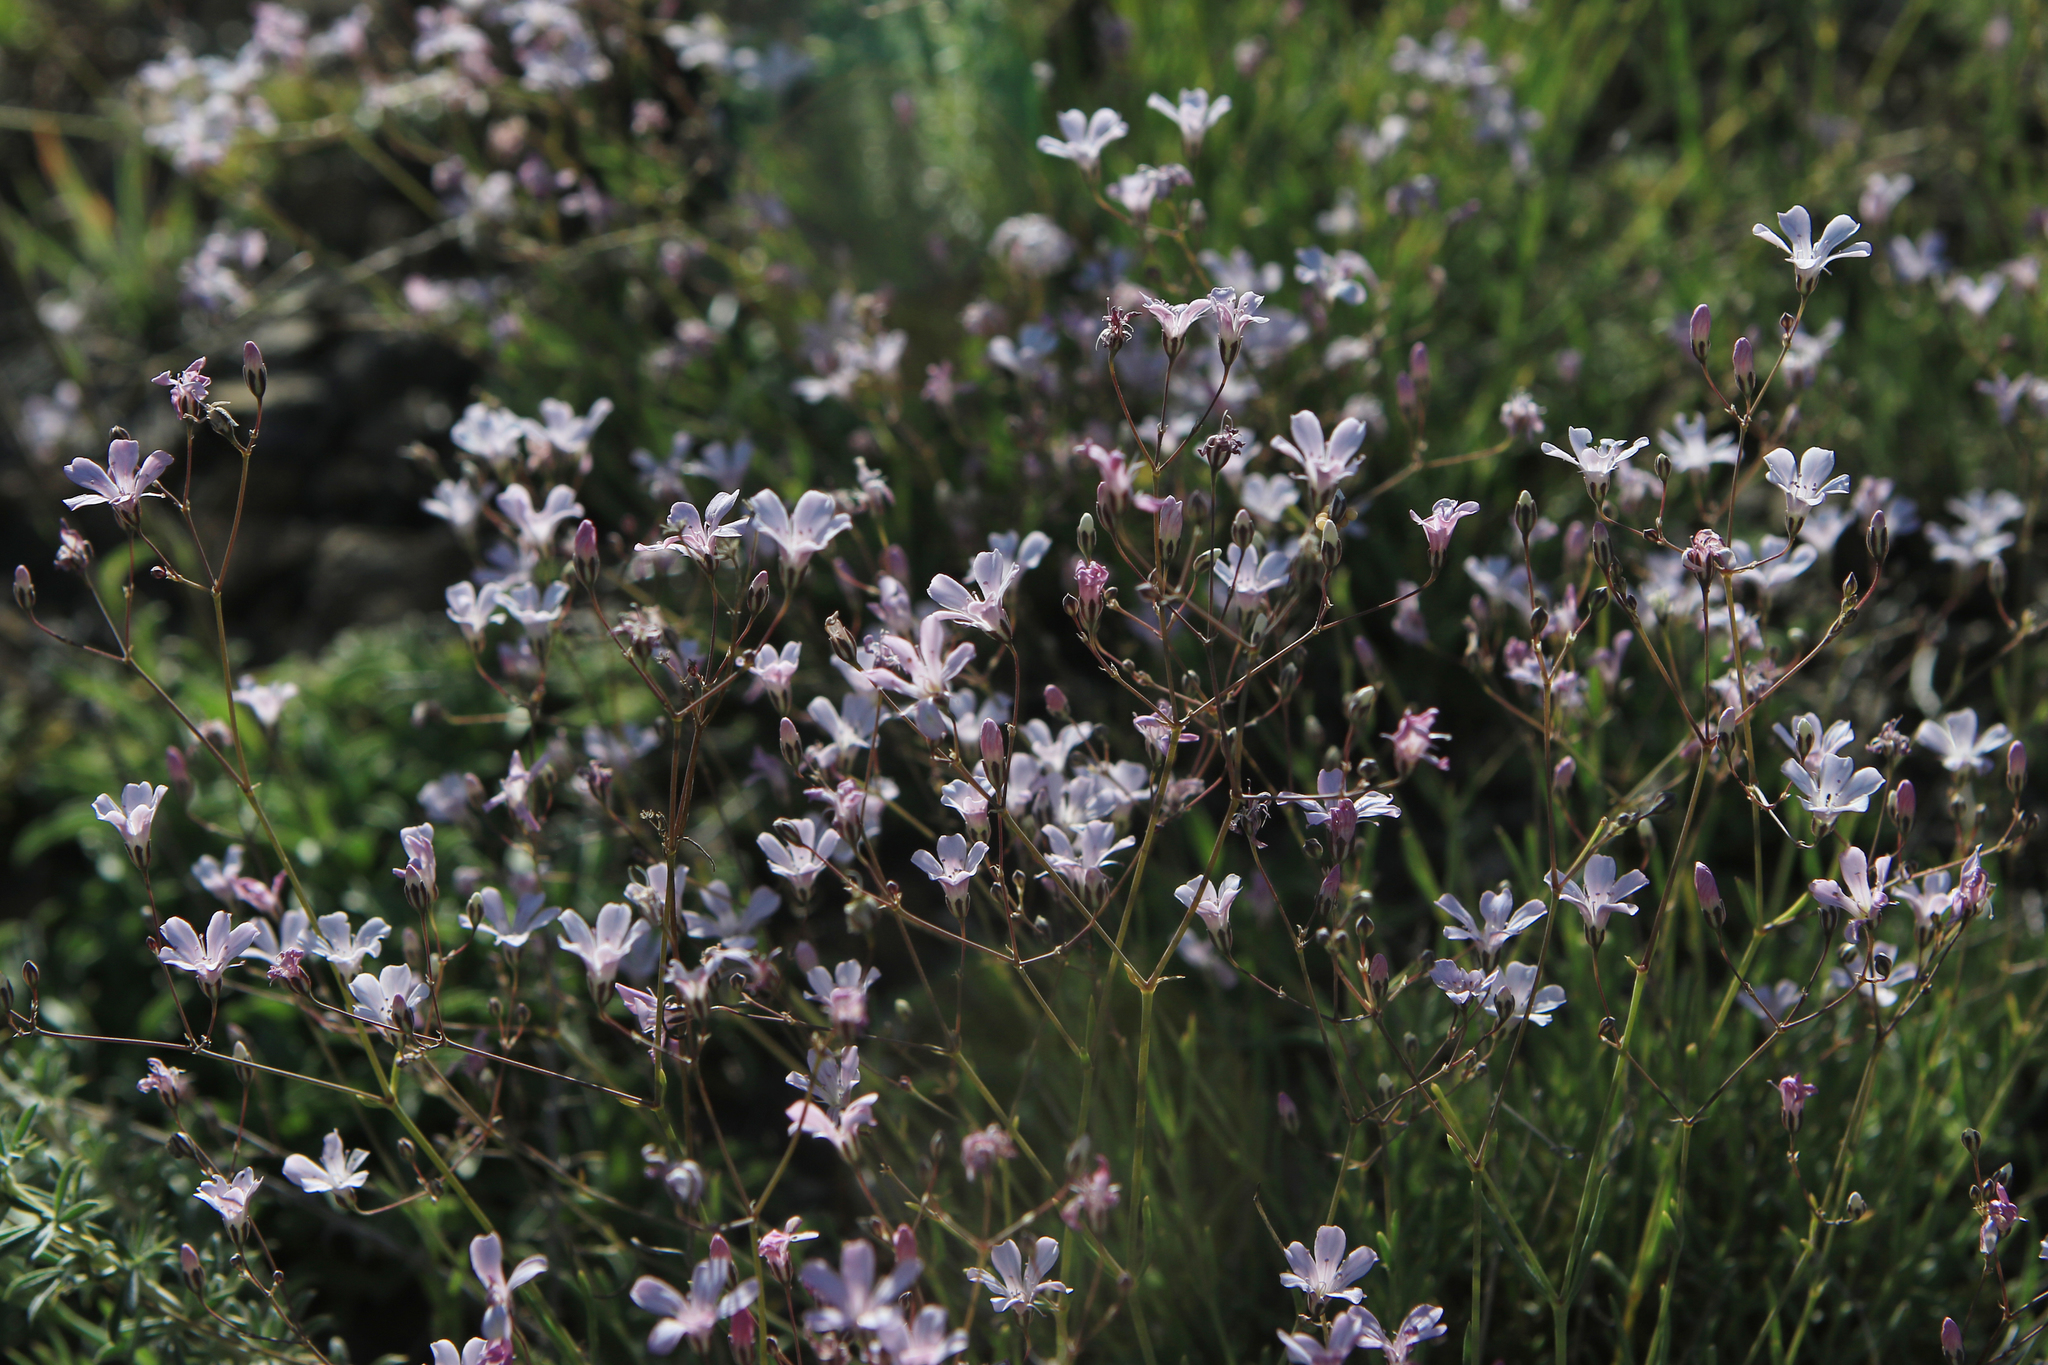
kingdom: Plantae
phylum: Tracheophyta
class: Magnoliopsida
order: Caryophyllales
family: Caryophyllaceae
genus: Gypsophila
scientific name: Gypsophila patrinii
